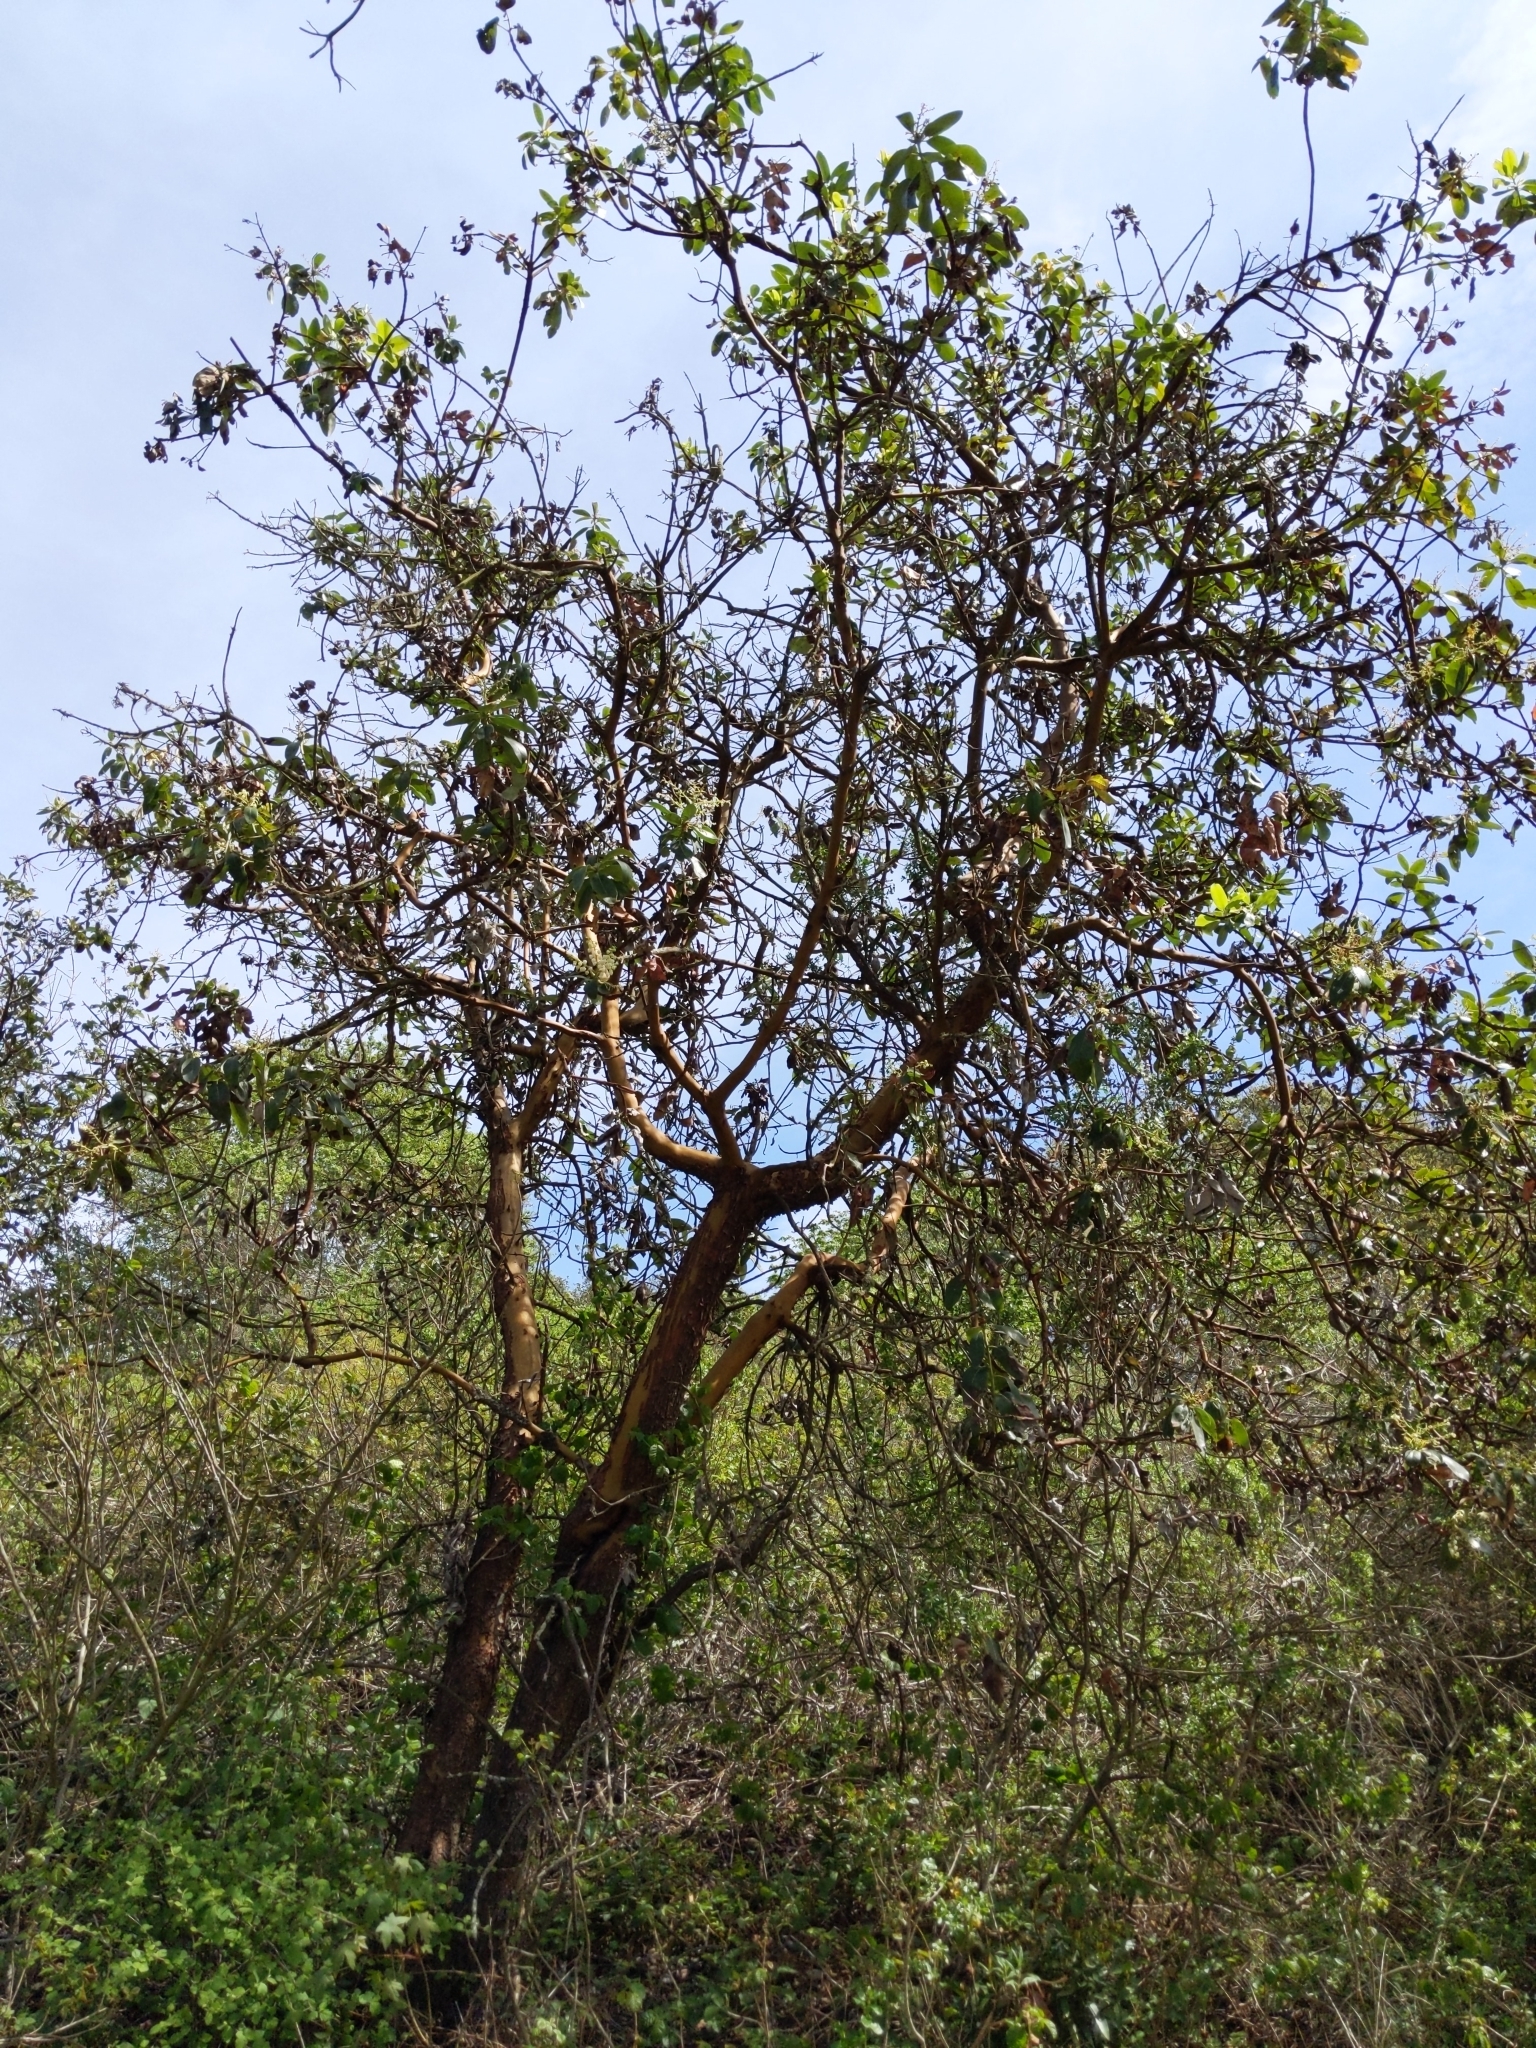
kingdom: Plantae
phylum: Tracheophyta
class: Magnoliopsida
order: Ericales
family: Ericaceae
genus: Arbutus
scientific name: Arbutus menziesii
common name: Pacific madrone
